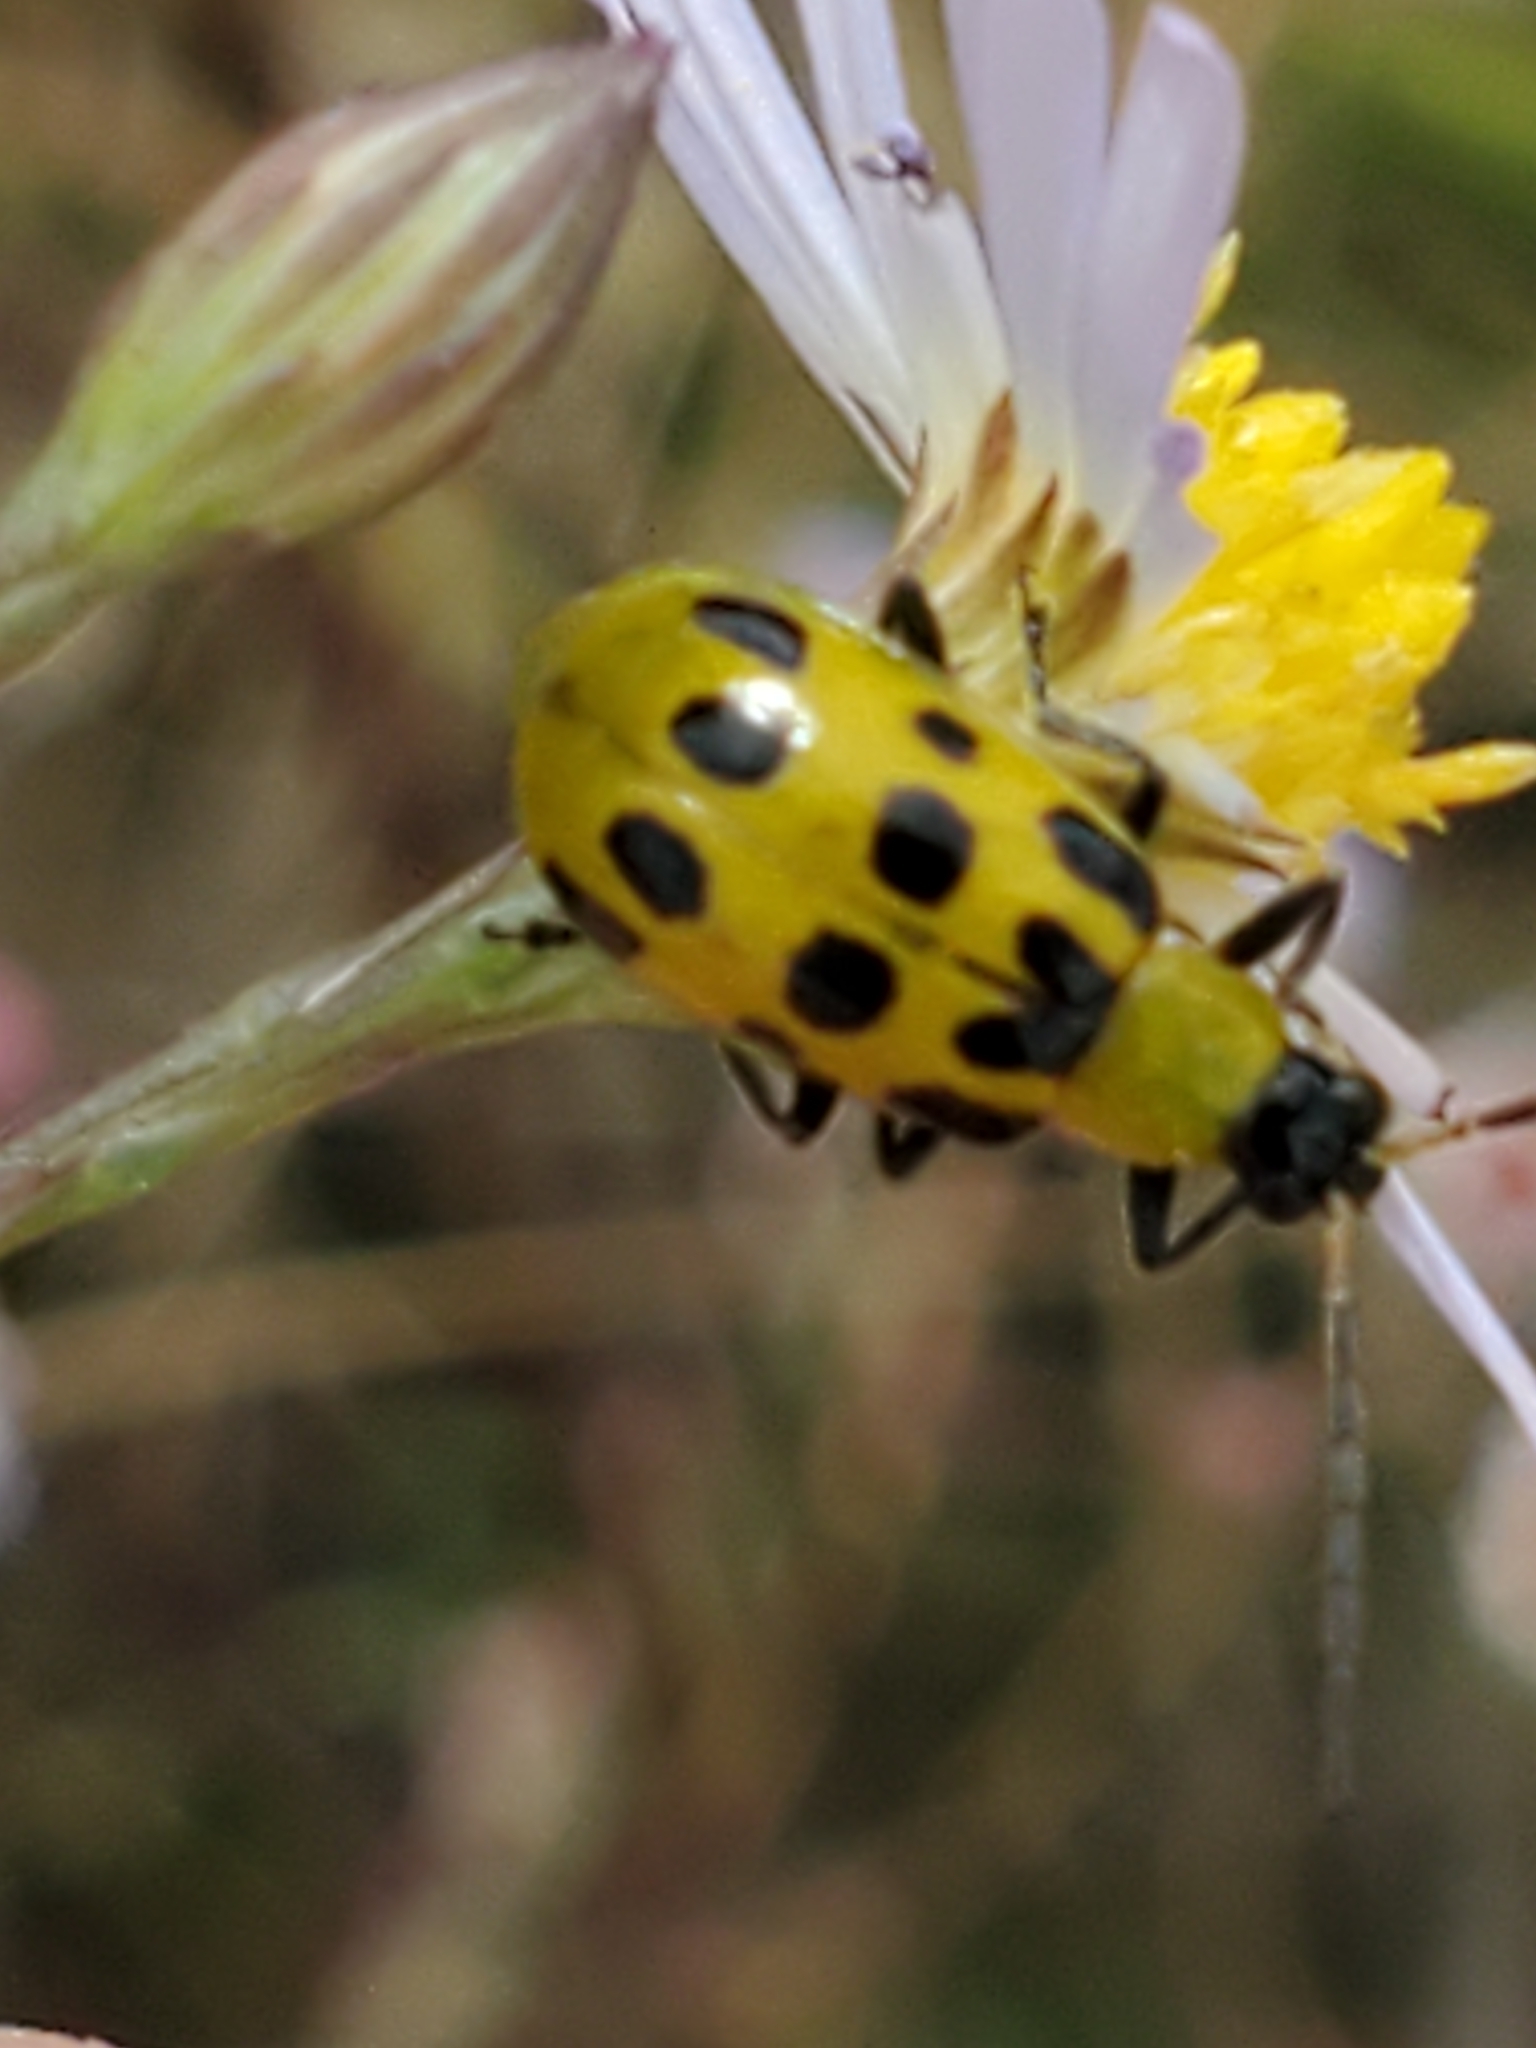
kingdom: Animalia
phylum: Arthropoda
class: Insecta
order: Coleoptera
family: Chrysomelidae
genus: Diabrotica
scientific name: Diabrotica undecimpunctata
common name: Spotted cucumber beetle
